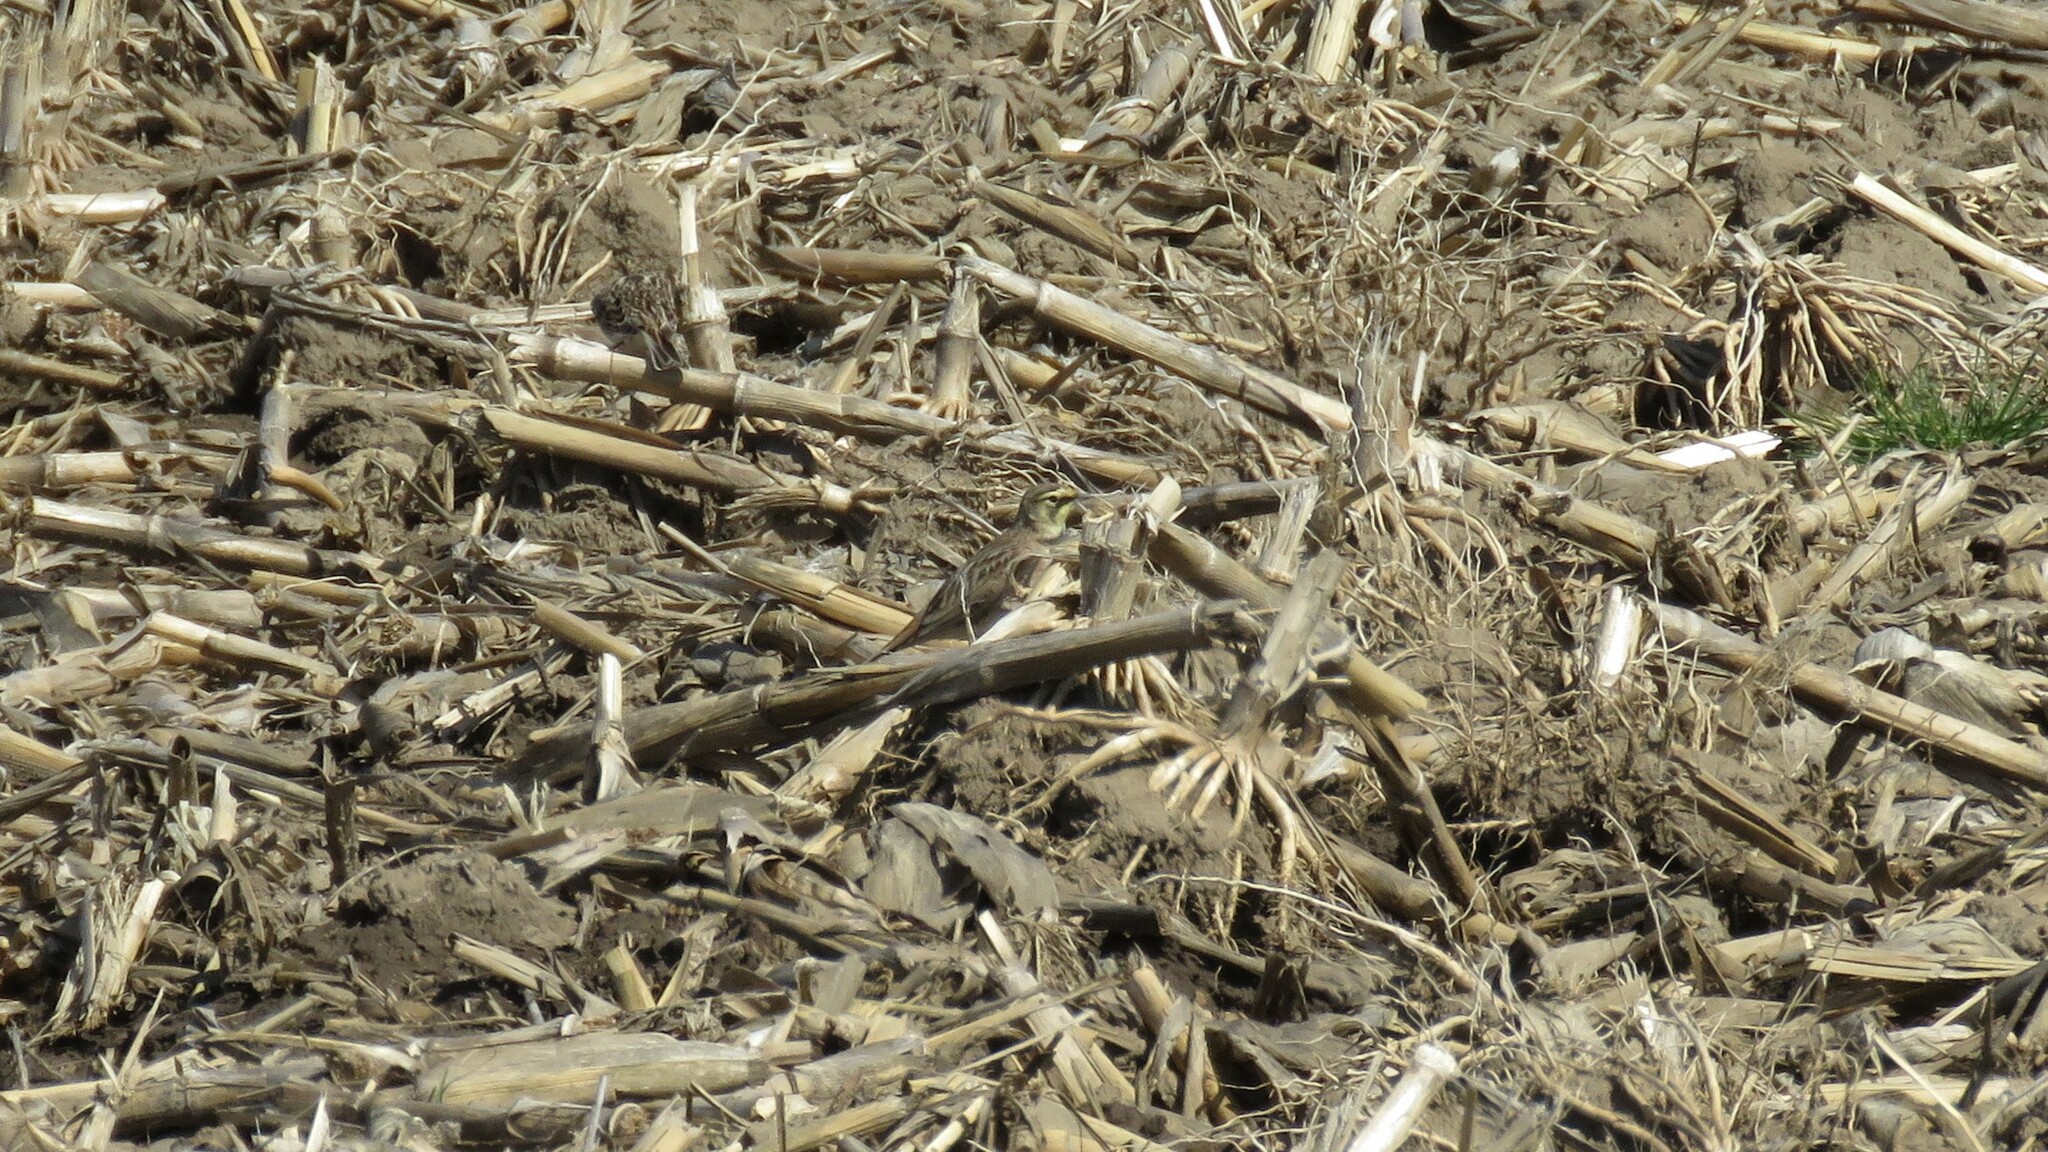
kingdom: Animalia
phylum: Chordata
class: Aves
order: Passeriformes
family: Alaudidae
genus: Eremophila
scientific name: Eremophila alpestris
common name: Horned lark
